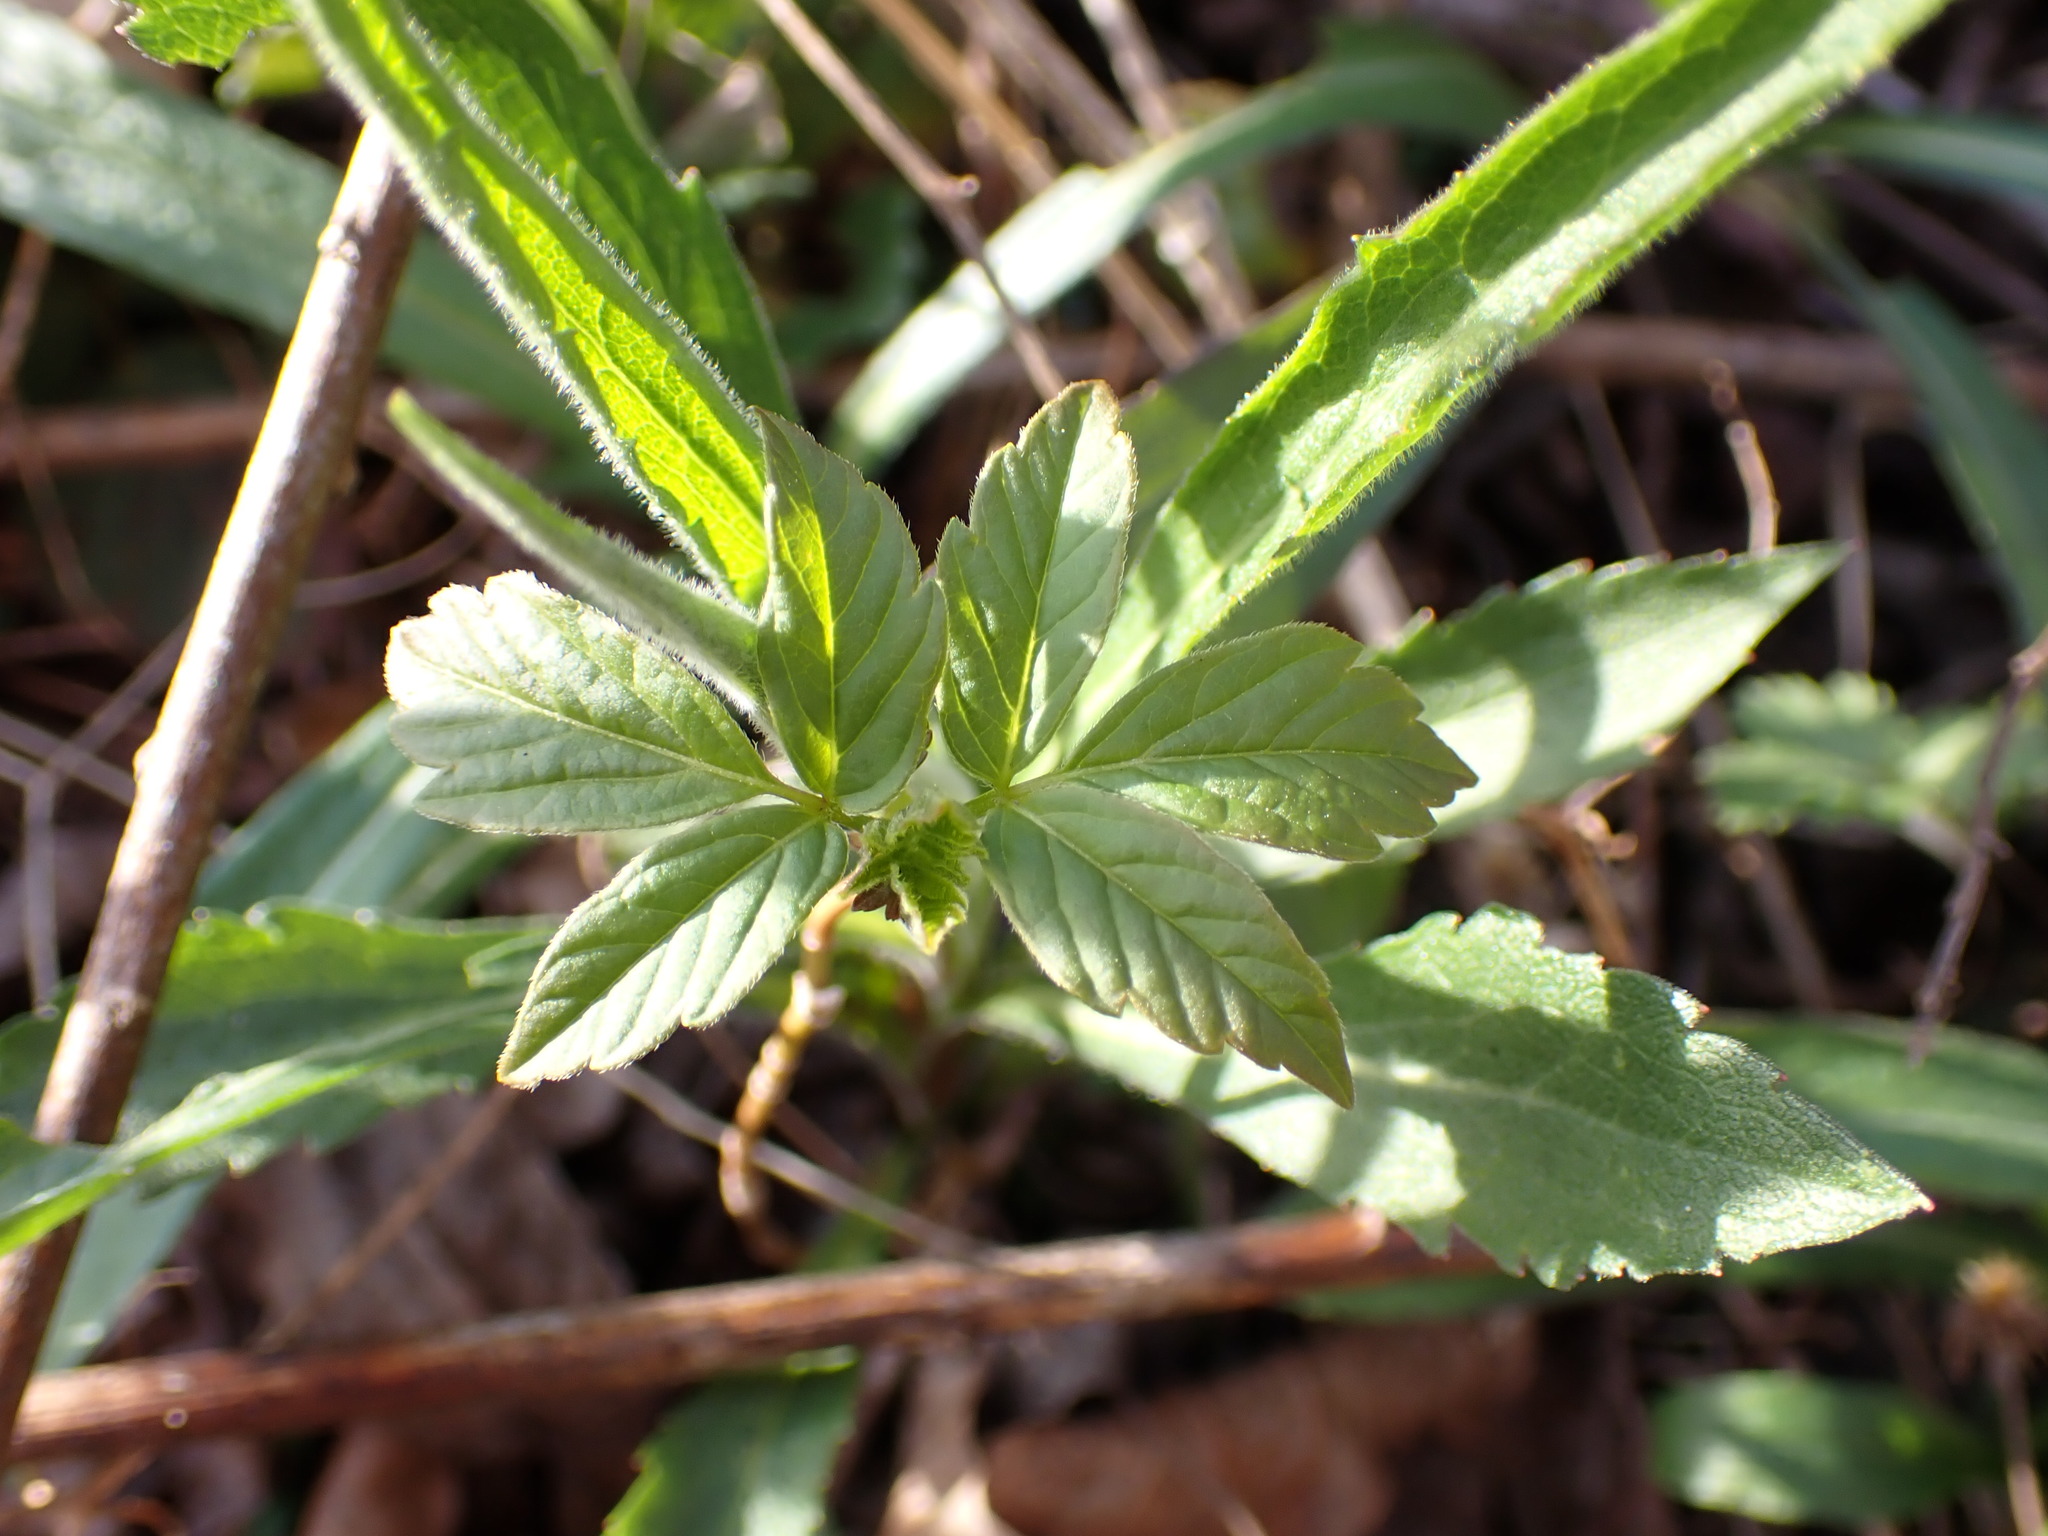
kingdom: Plantae
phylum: Tracheophyta
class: Magnoliopsida
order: Sapindales
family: Sapindaceae
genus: Acer
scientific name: Acer negundo
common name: Ashleaf maple
